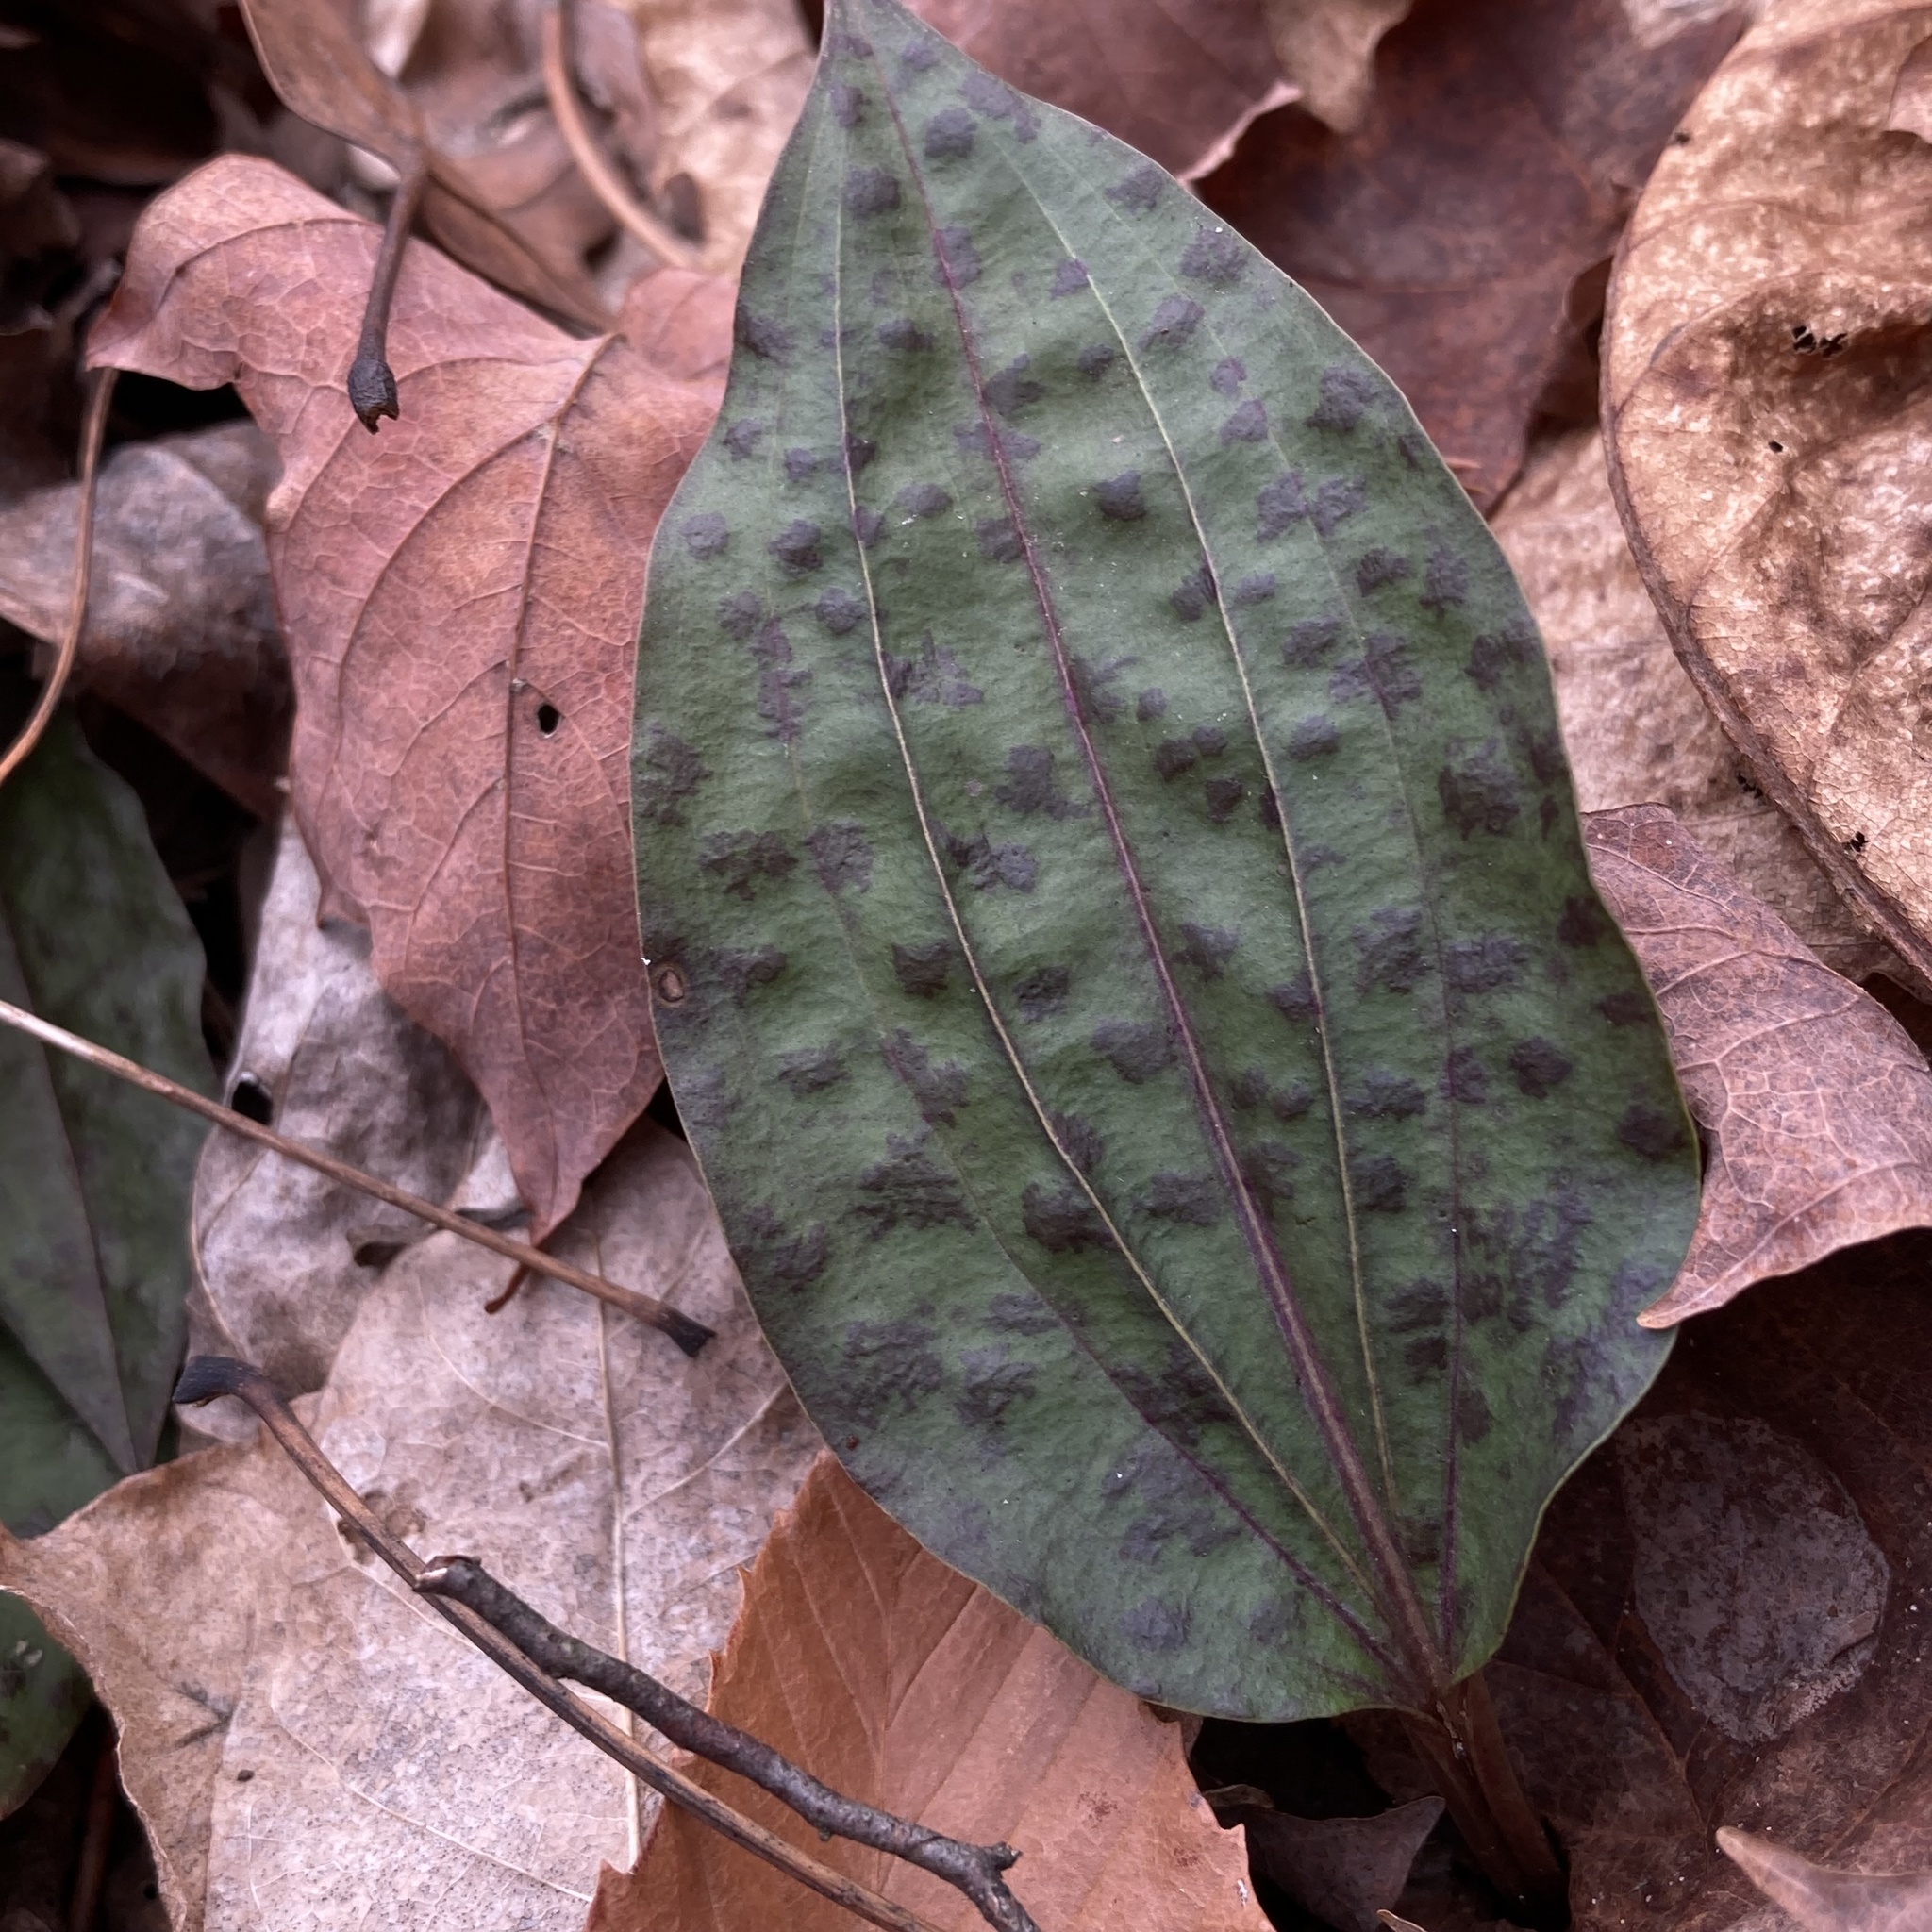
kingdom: Plantae
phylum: Tracheophyta
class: Liliopsida
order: Asparagales
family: Orchidaceae
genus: Tipularia
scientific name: Tipularia discolor
